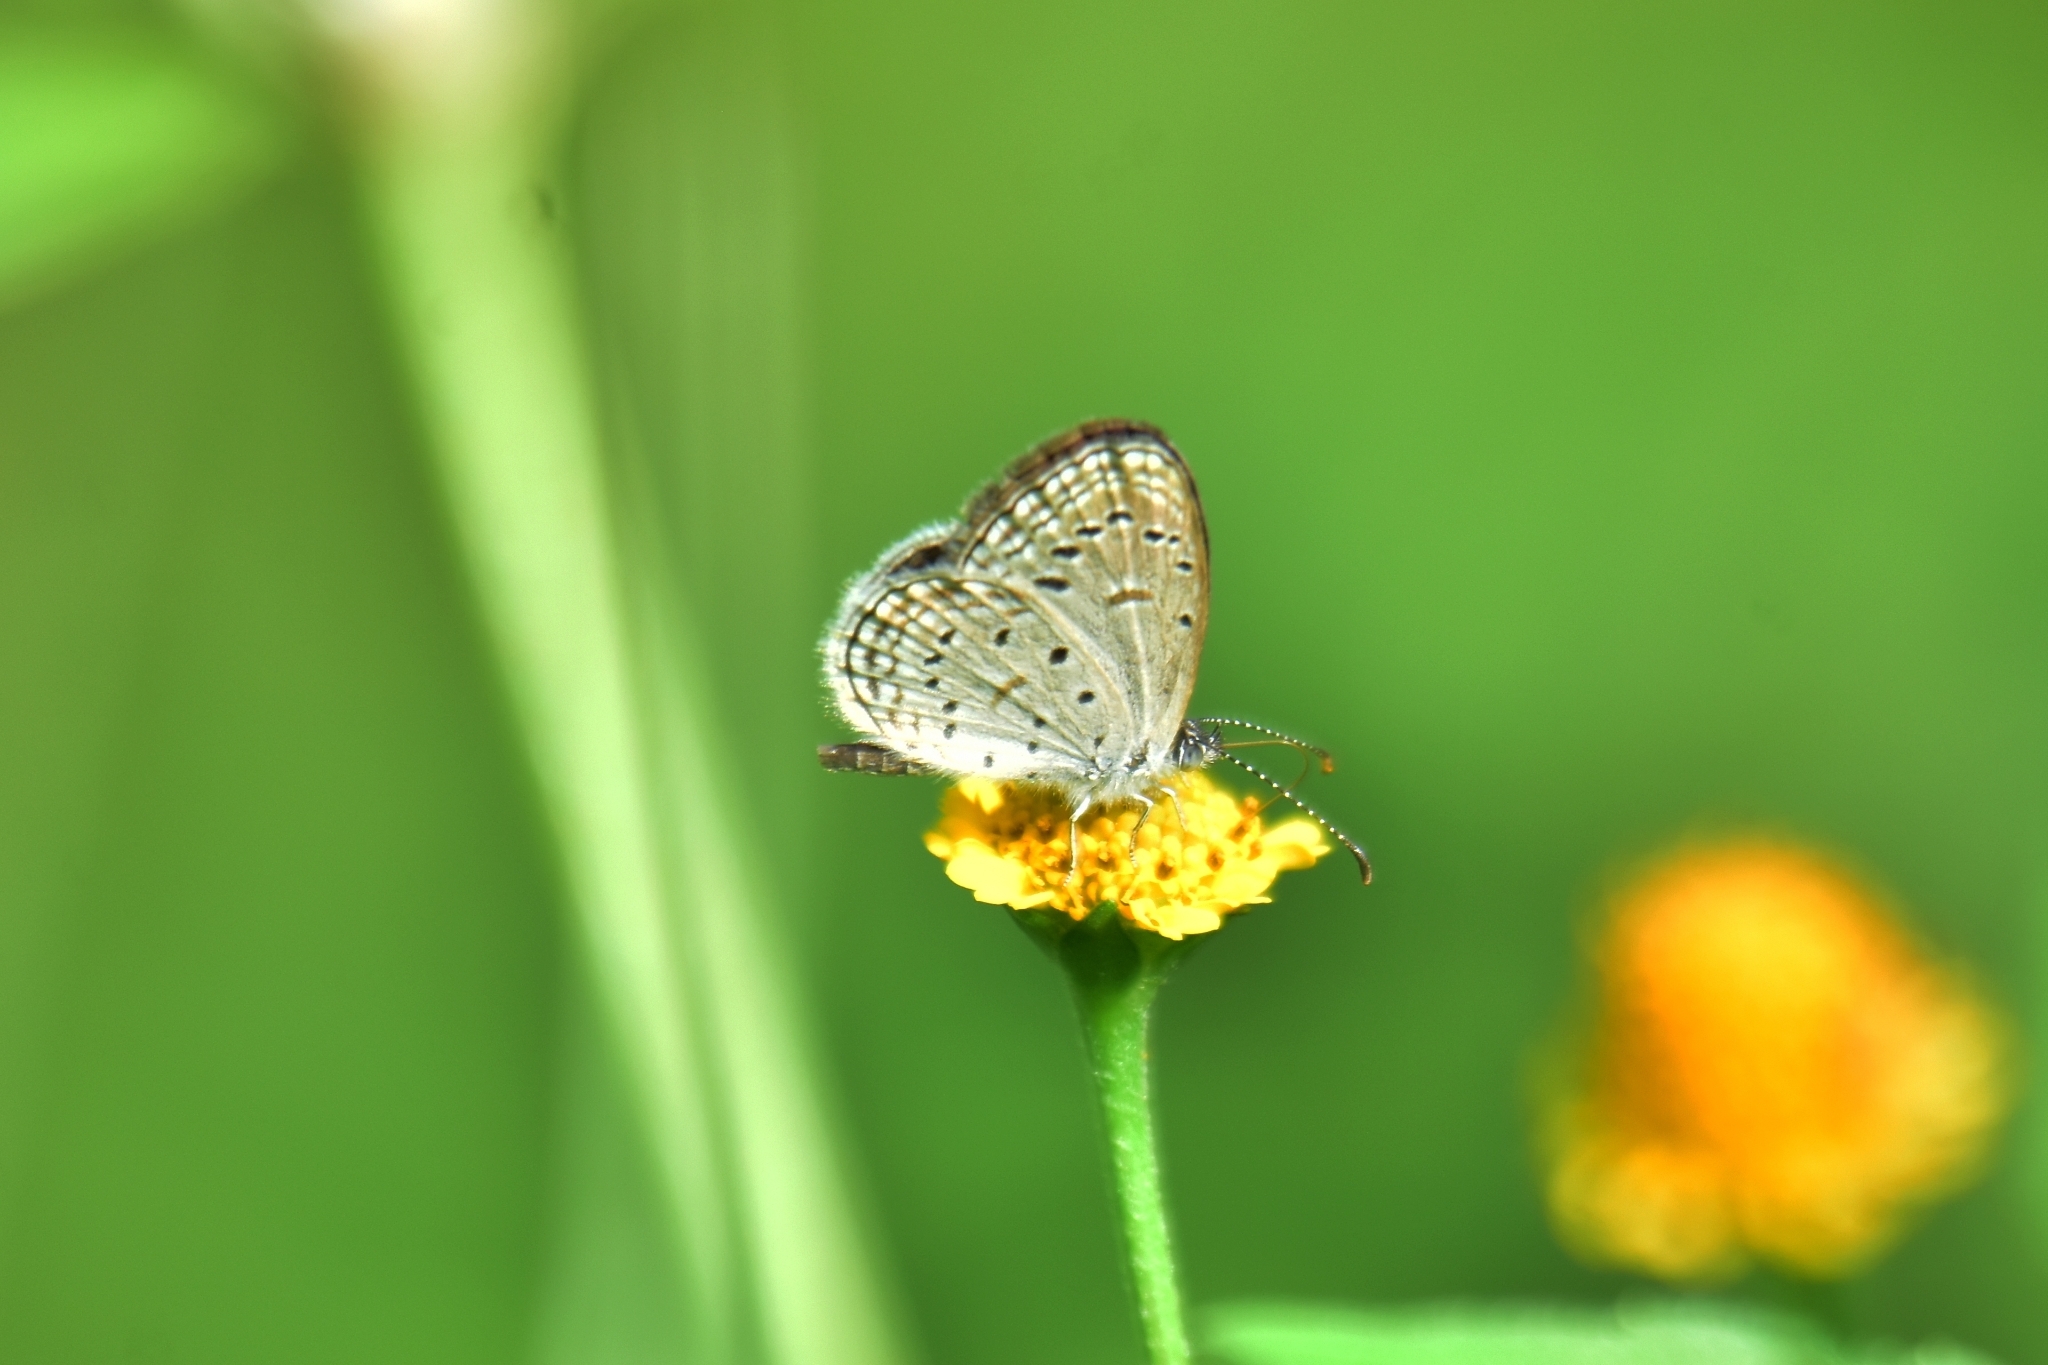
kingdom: Animalia
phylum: Arthropoda
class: Insecta
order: Lepidoptera
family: Lycaenidae
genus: Zizula
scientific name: Zizula hylax
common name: Gaika blue
